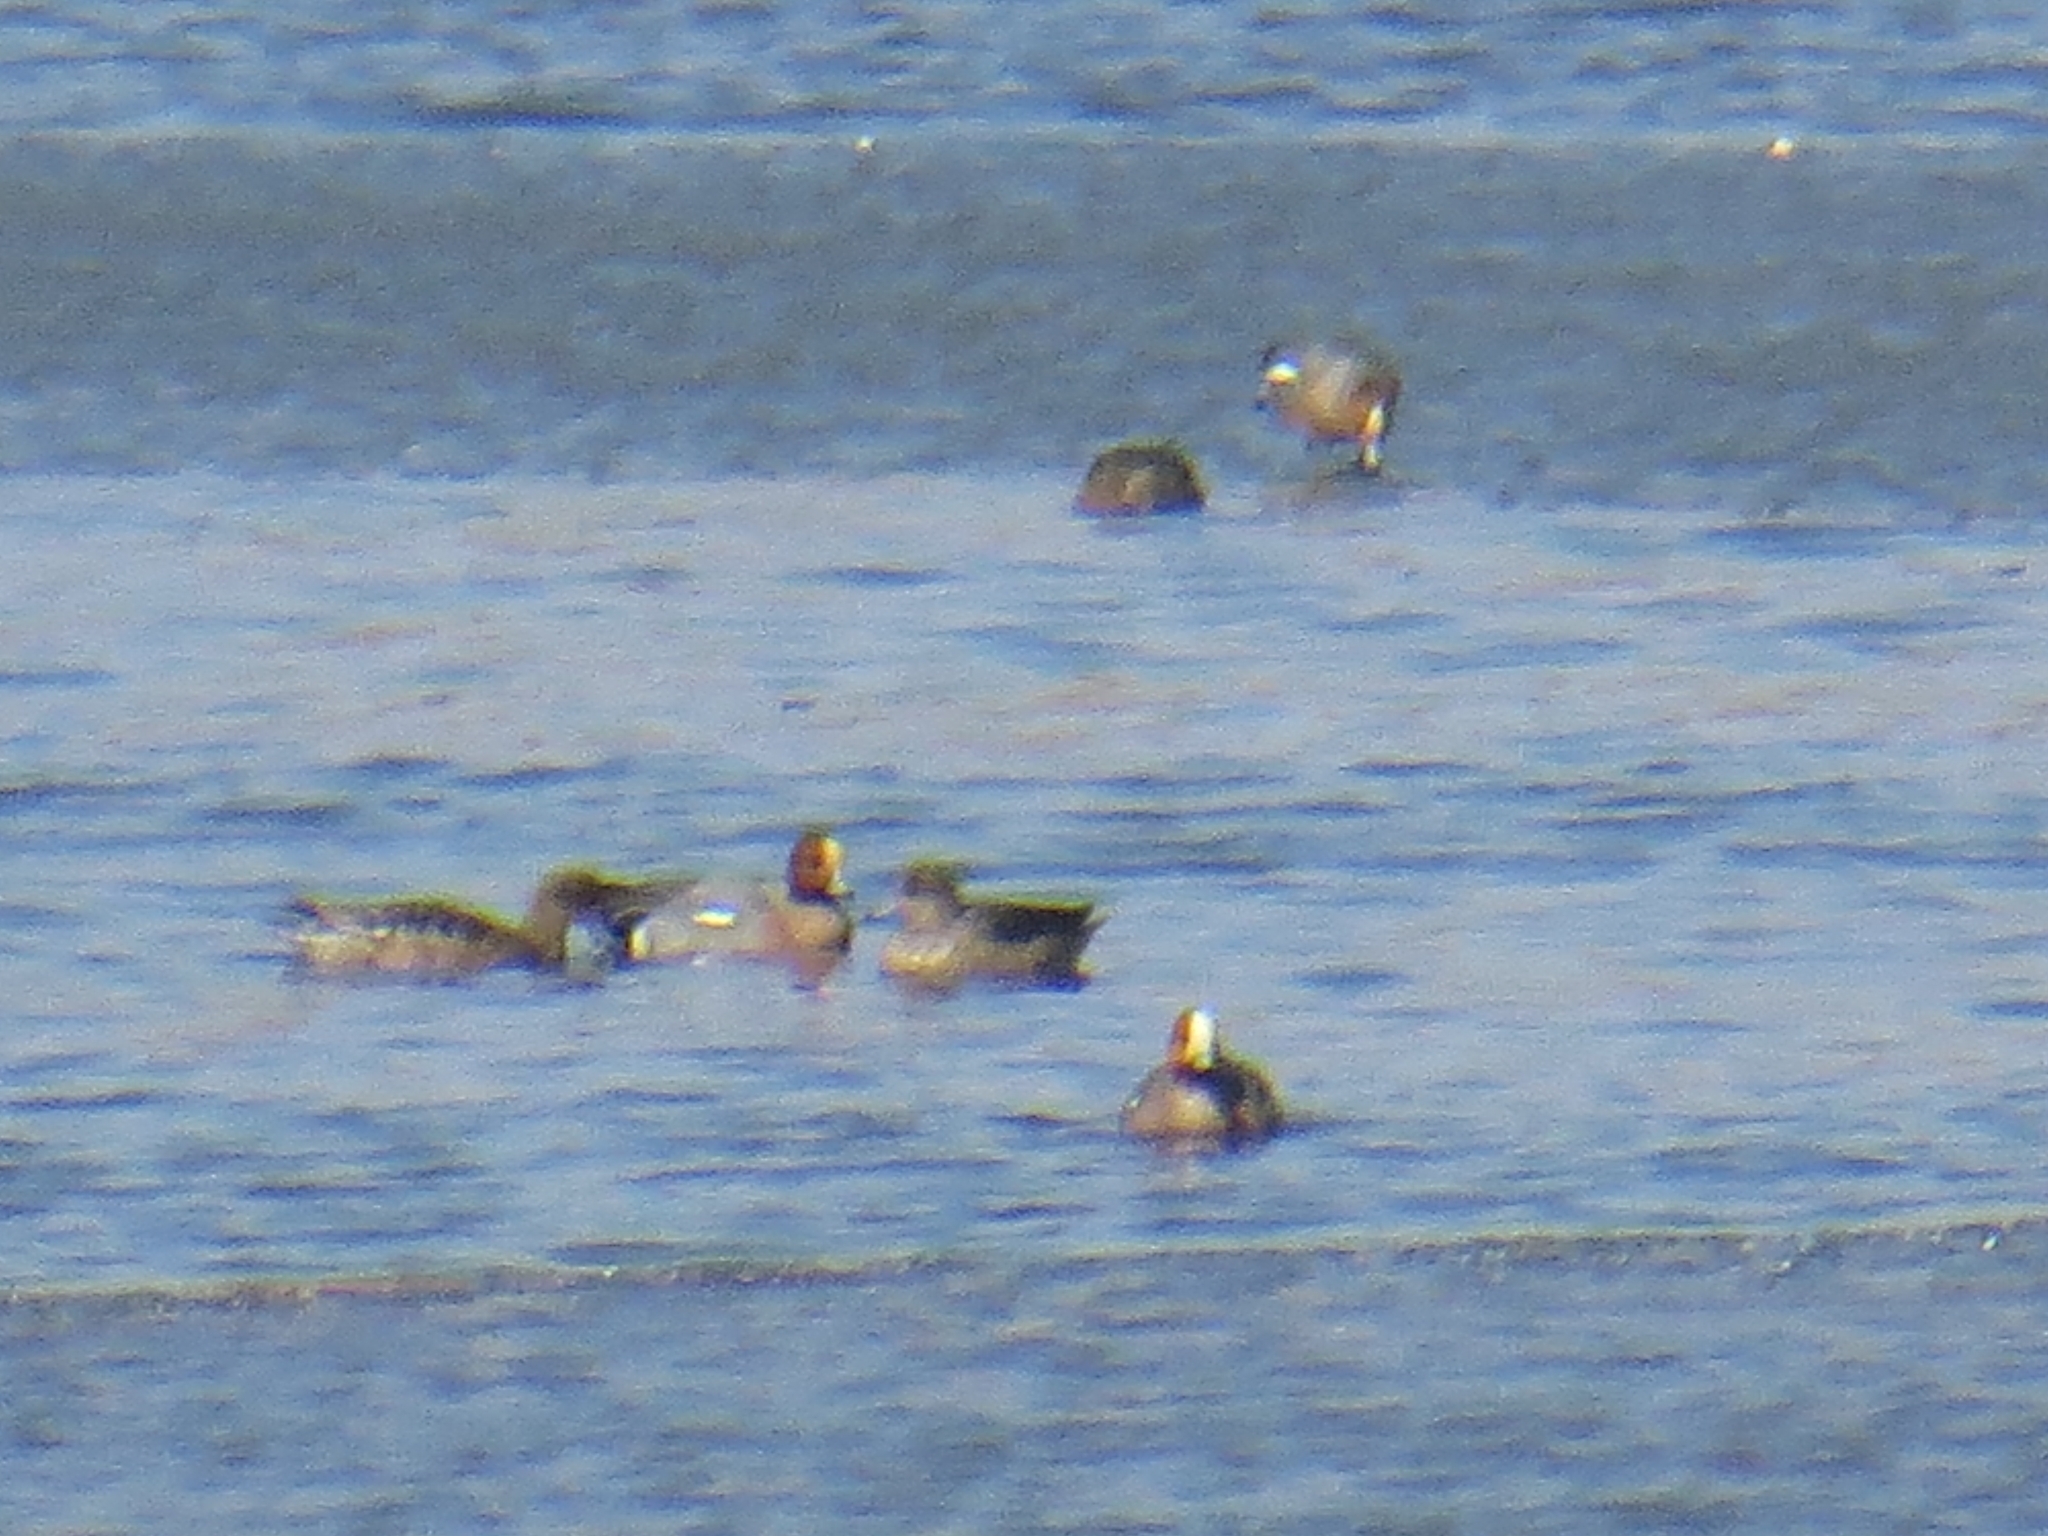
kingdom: Animalia
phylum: Chordata
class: Aves
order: Anseriformes
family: Anatidae
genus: Mareca
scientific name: Mareca penelope
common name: Eurasian wigeon
